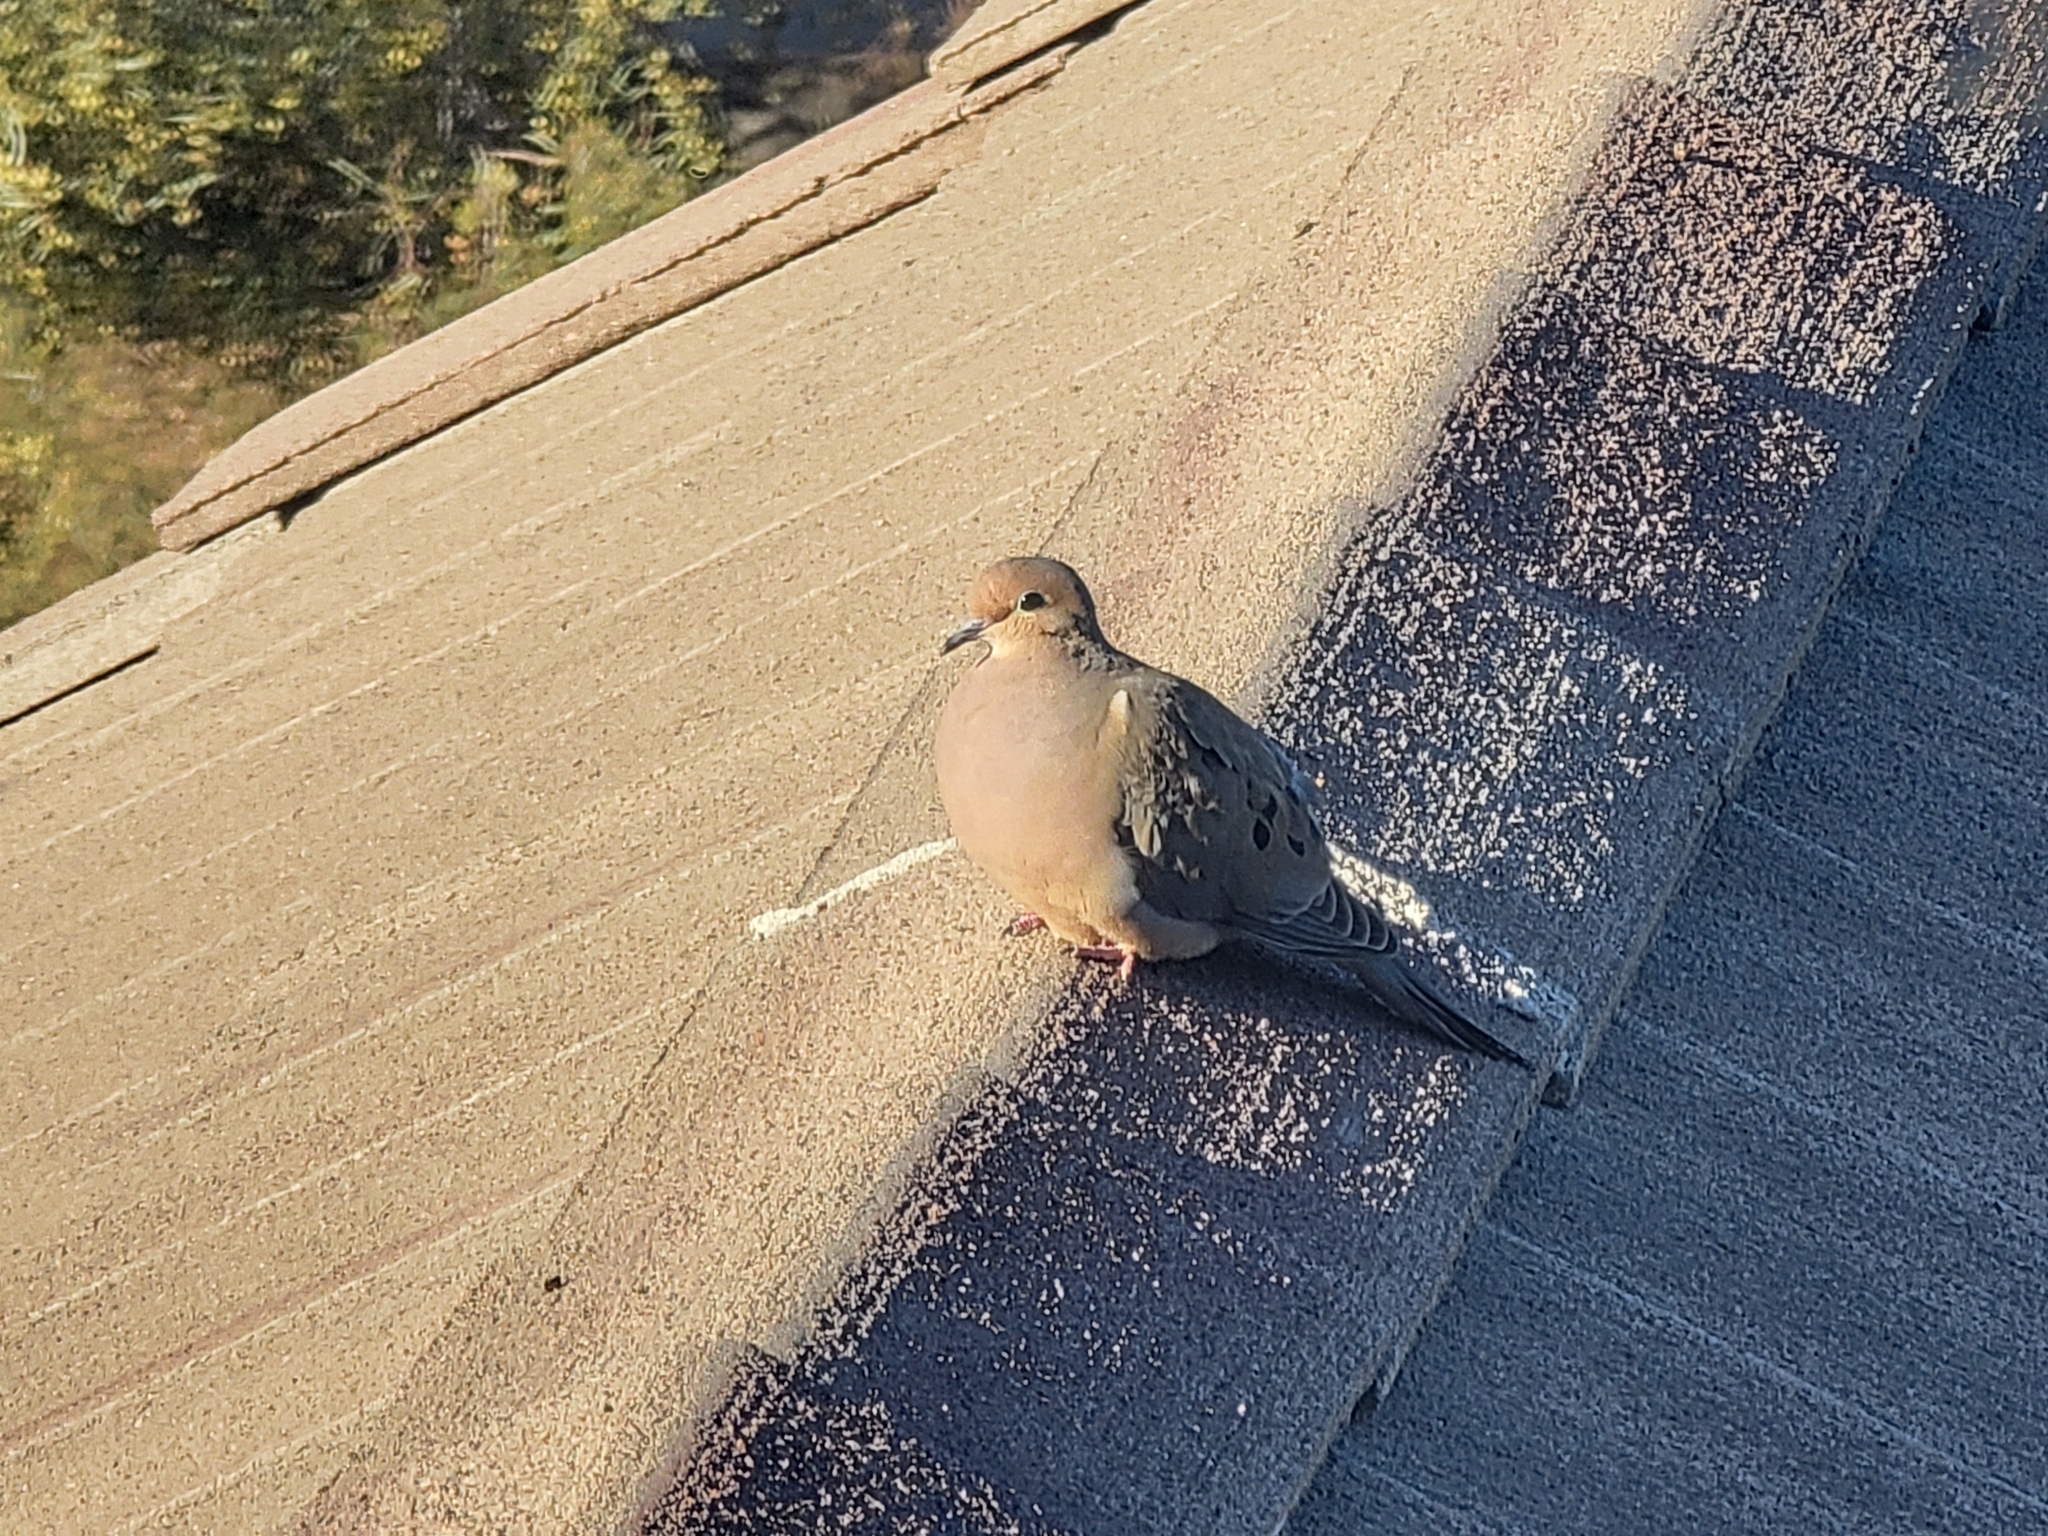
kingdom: Animalia
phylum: Chordata
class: Aves
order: Columbiformes
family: Columbidae
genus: Zenaida
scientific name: Zenaida macroura
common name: Mourning dove
